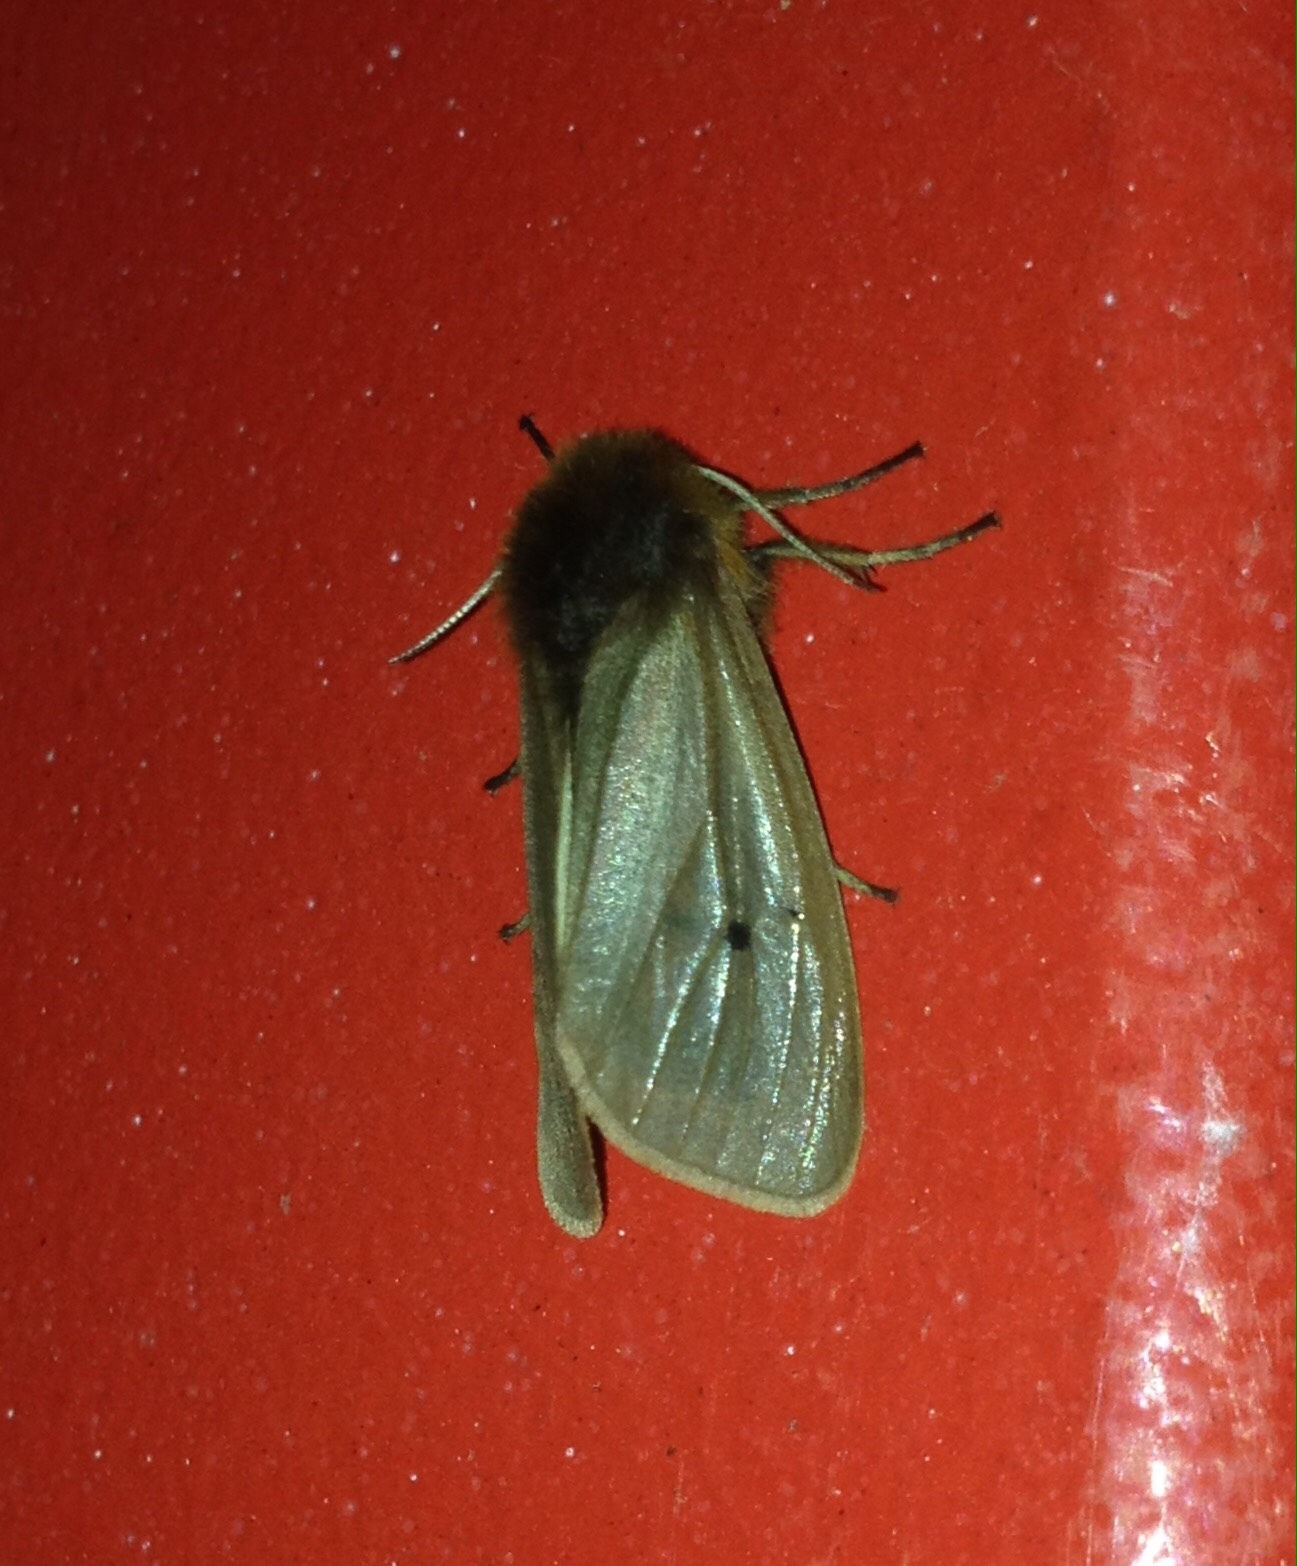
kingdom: Animalia
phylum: Arthropoda
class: Insecta
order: Lepidoptera
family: Erebidae
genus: Phragmatobia
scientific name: Phragmatobia fuliginosa
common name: Ruby tiger
